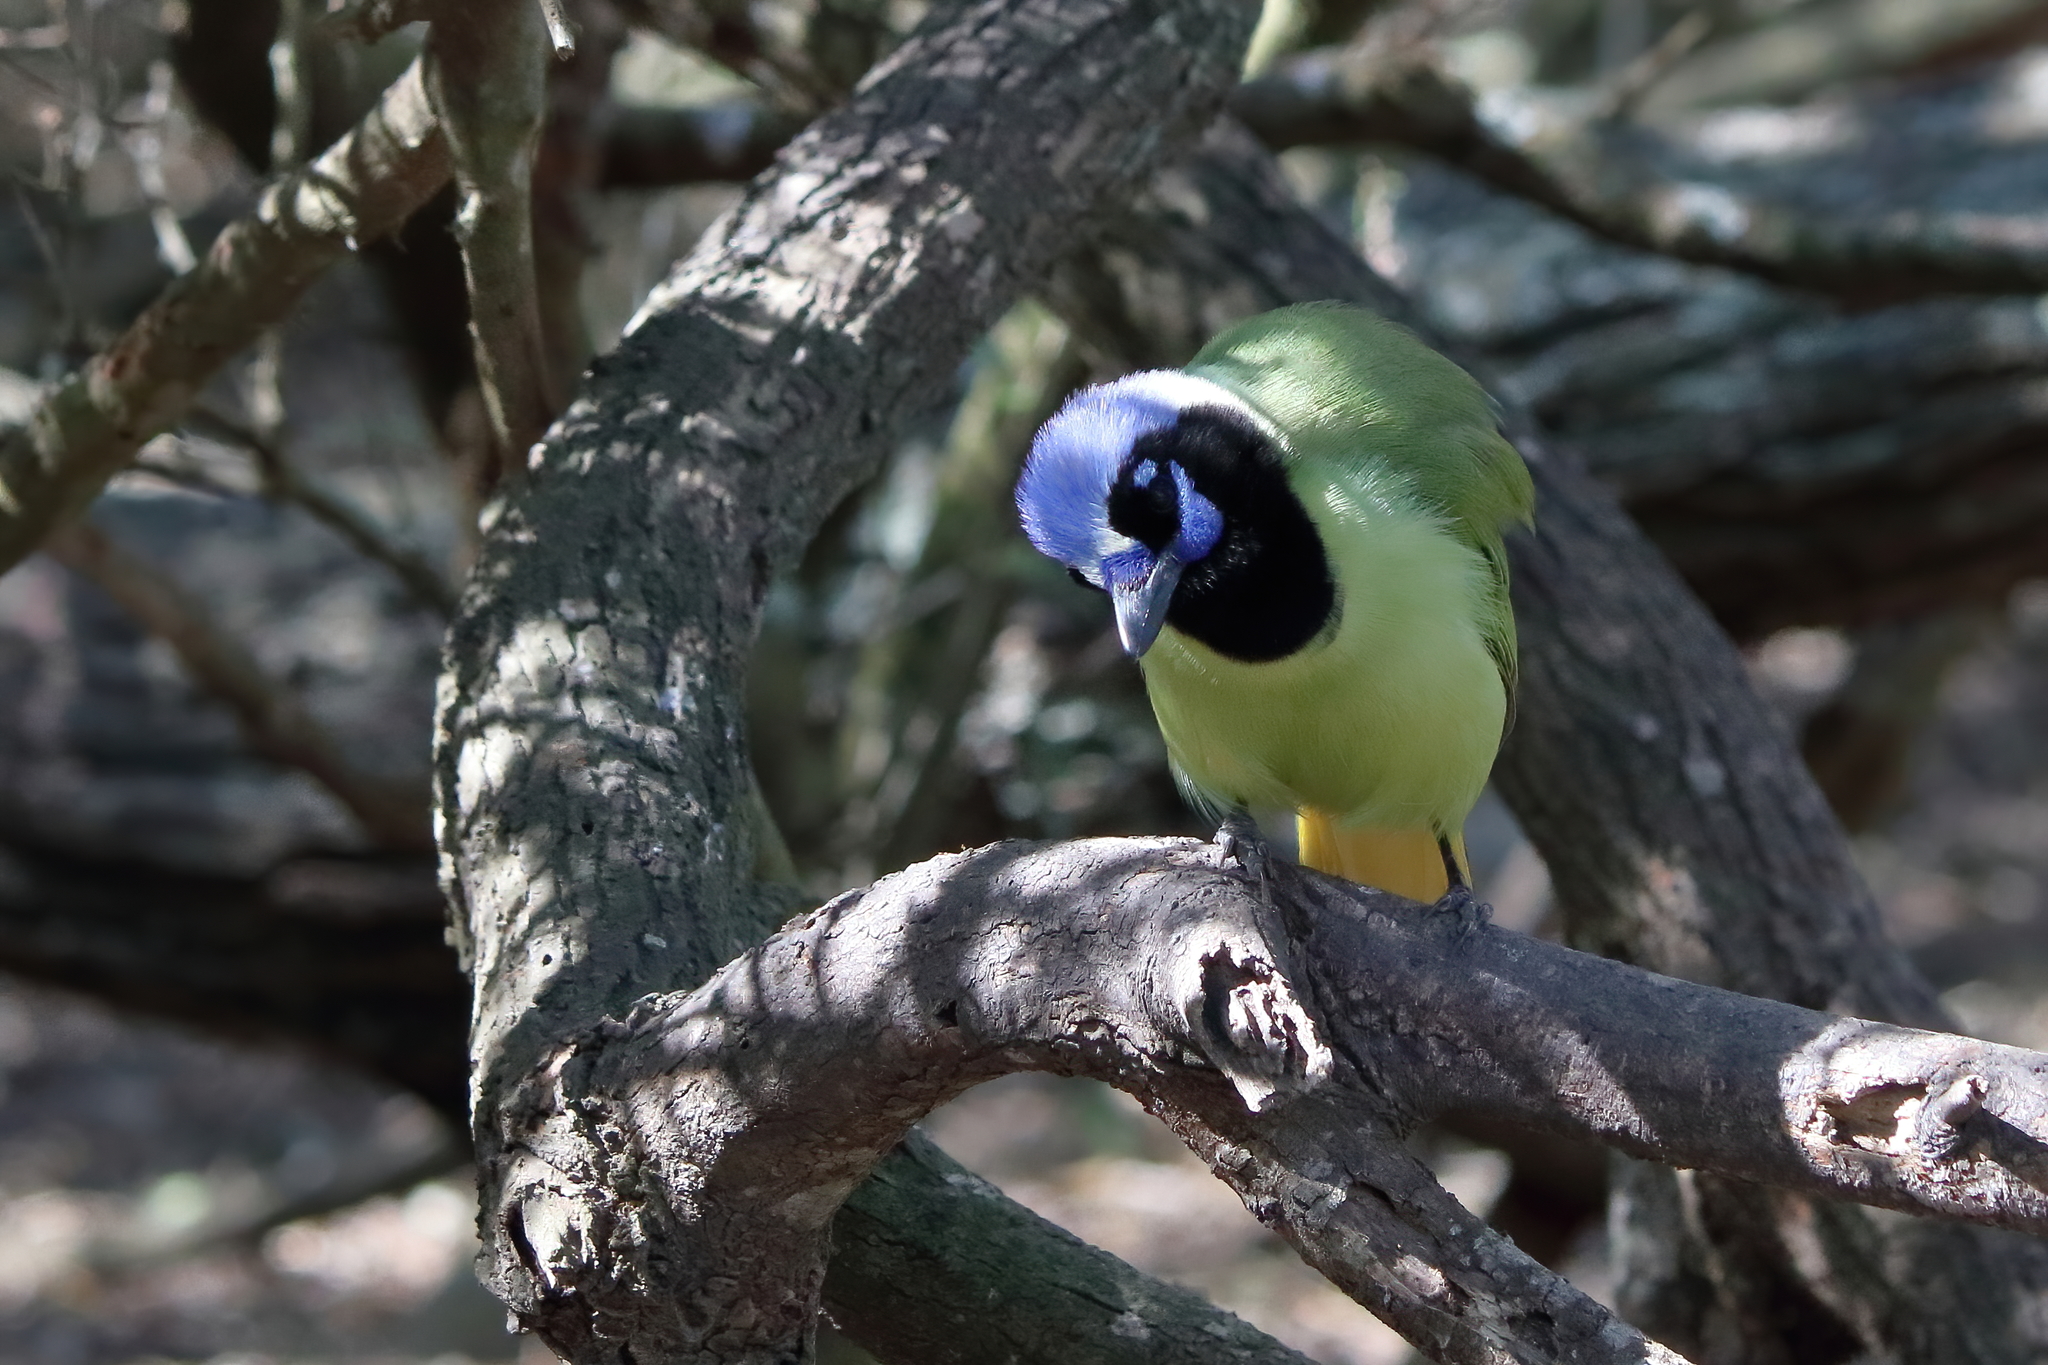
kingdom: Animalia
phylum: Chordata
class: Aves
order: Passeriformes
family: Corvidae
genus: Cyanocorax
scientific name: Cyanocorax yncas
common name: Green jay
